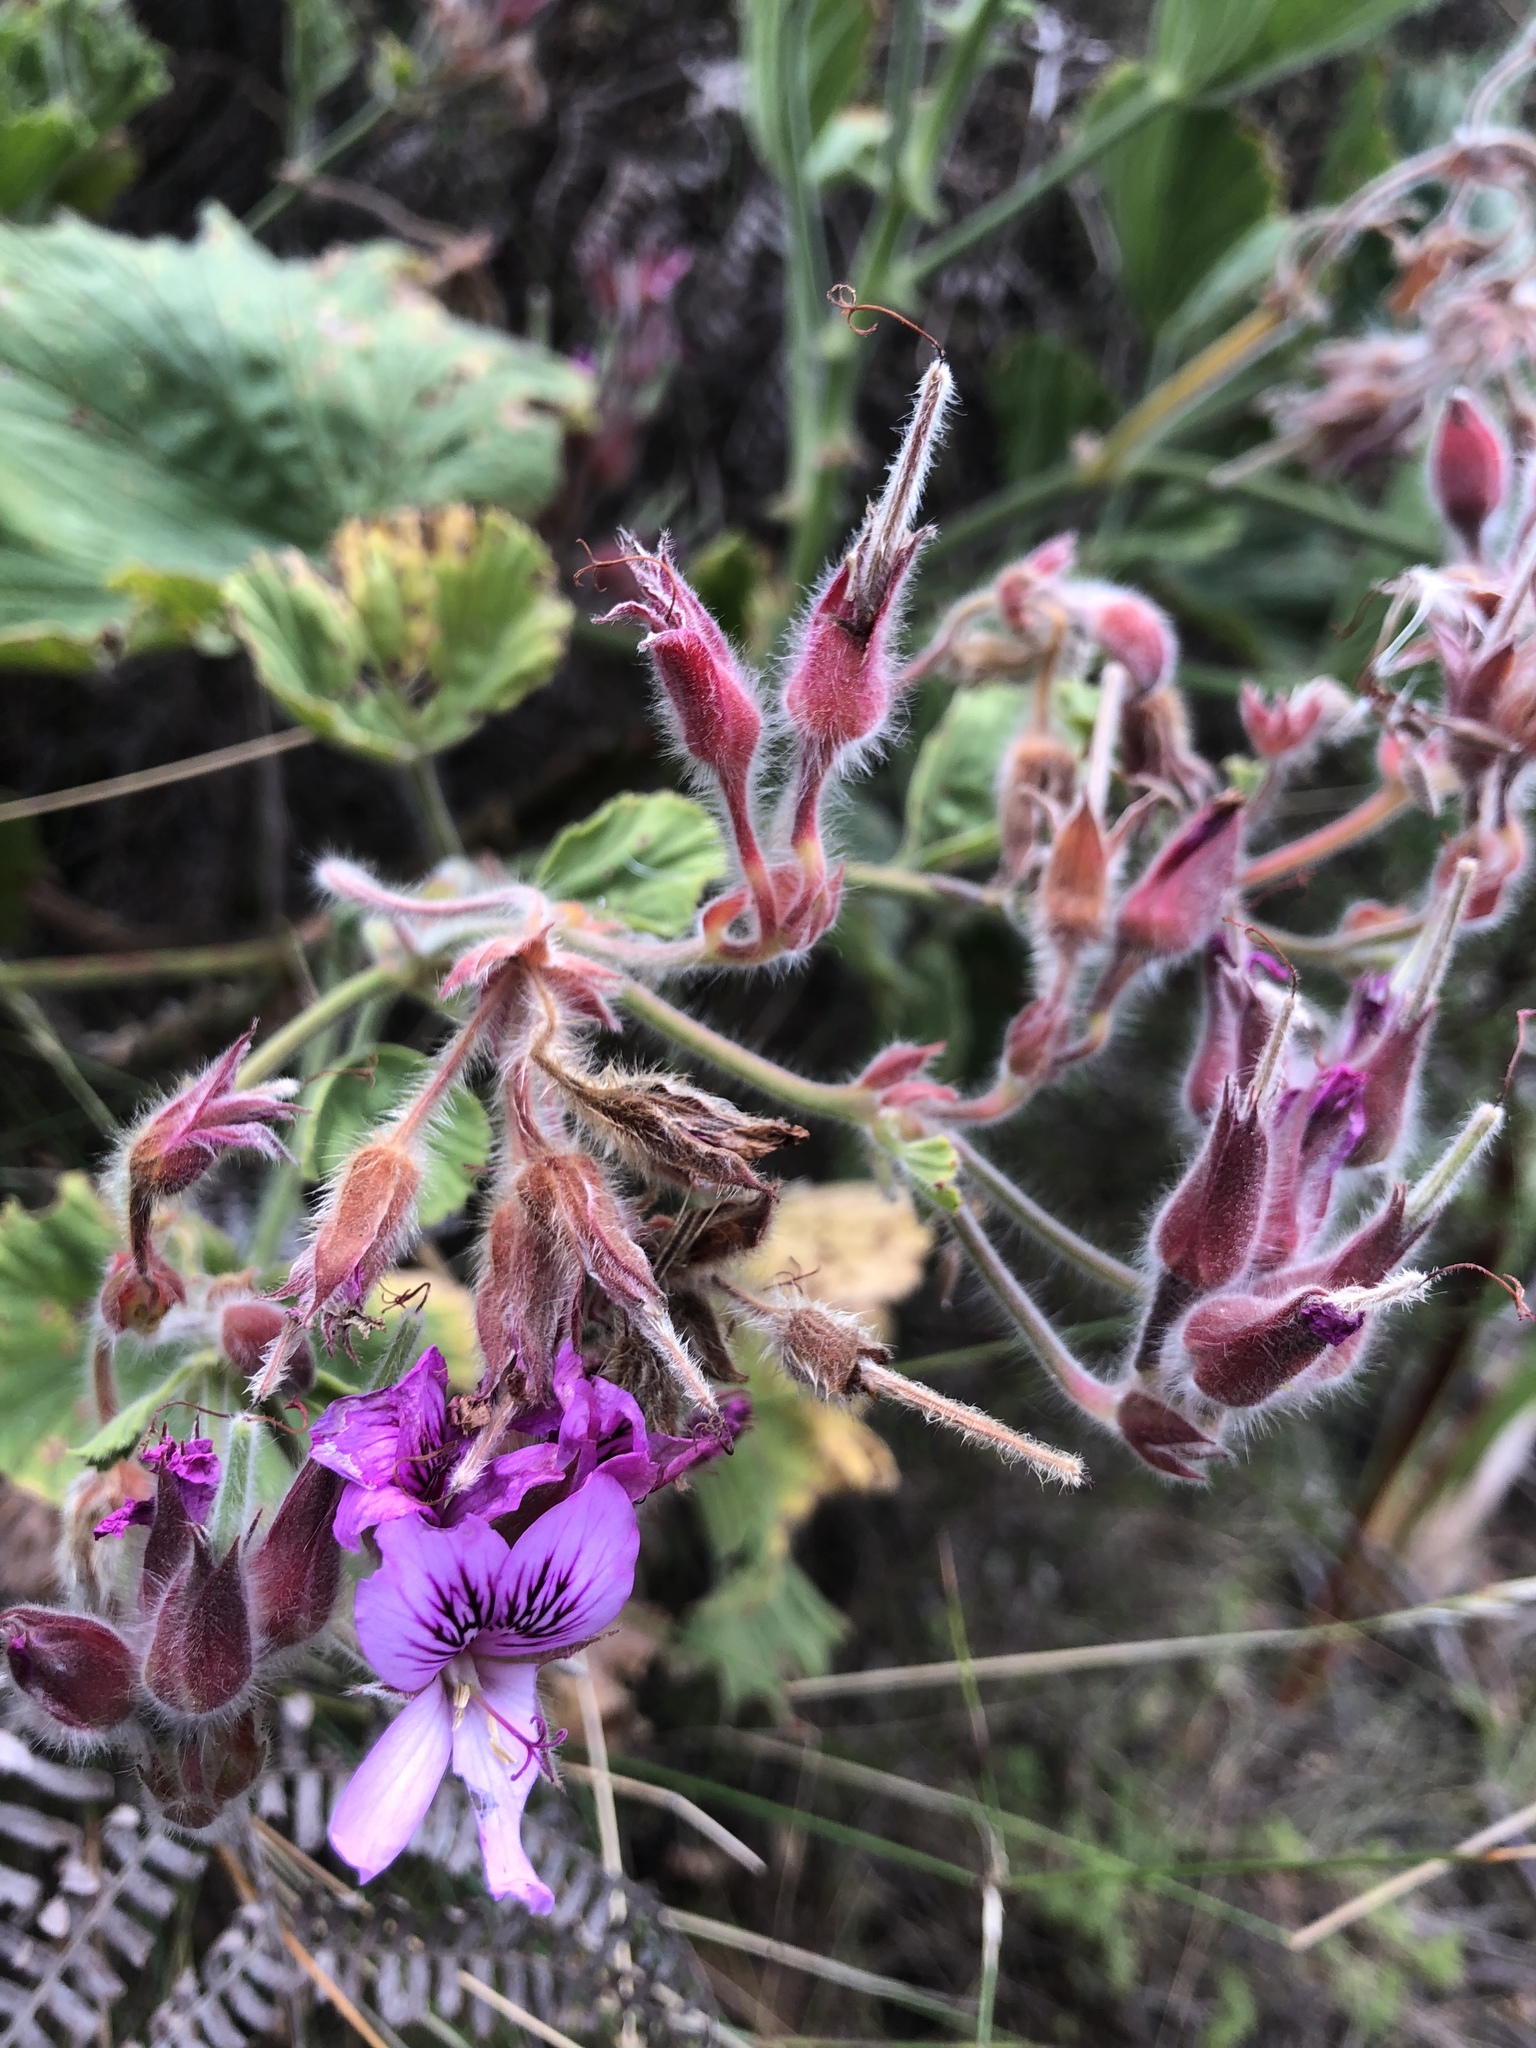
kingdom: Plantae
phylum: Tracheophyta
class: Magnoliopsida
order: Geraniales
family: Geraniaceae
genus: Pelargonium
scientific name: Pelargonium cucullatum
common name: Tree pelargonium
